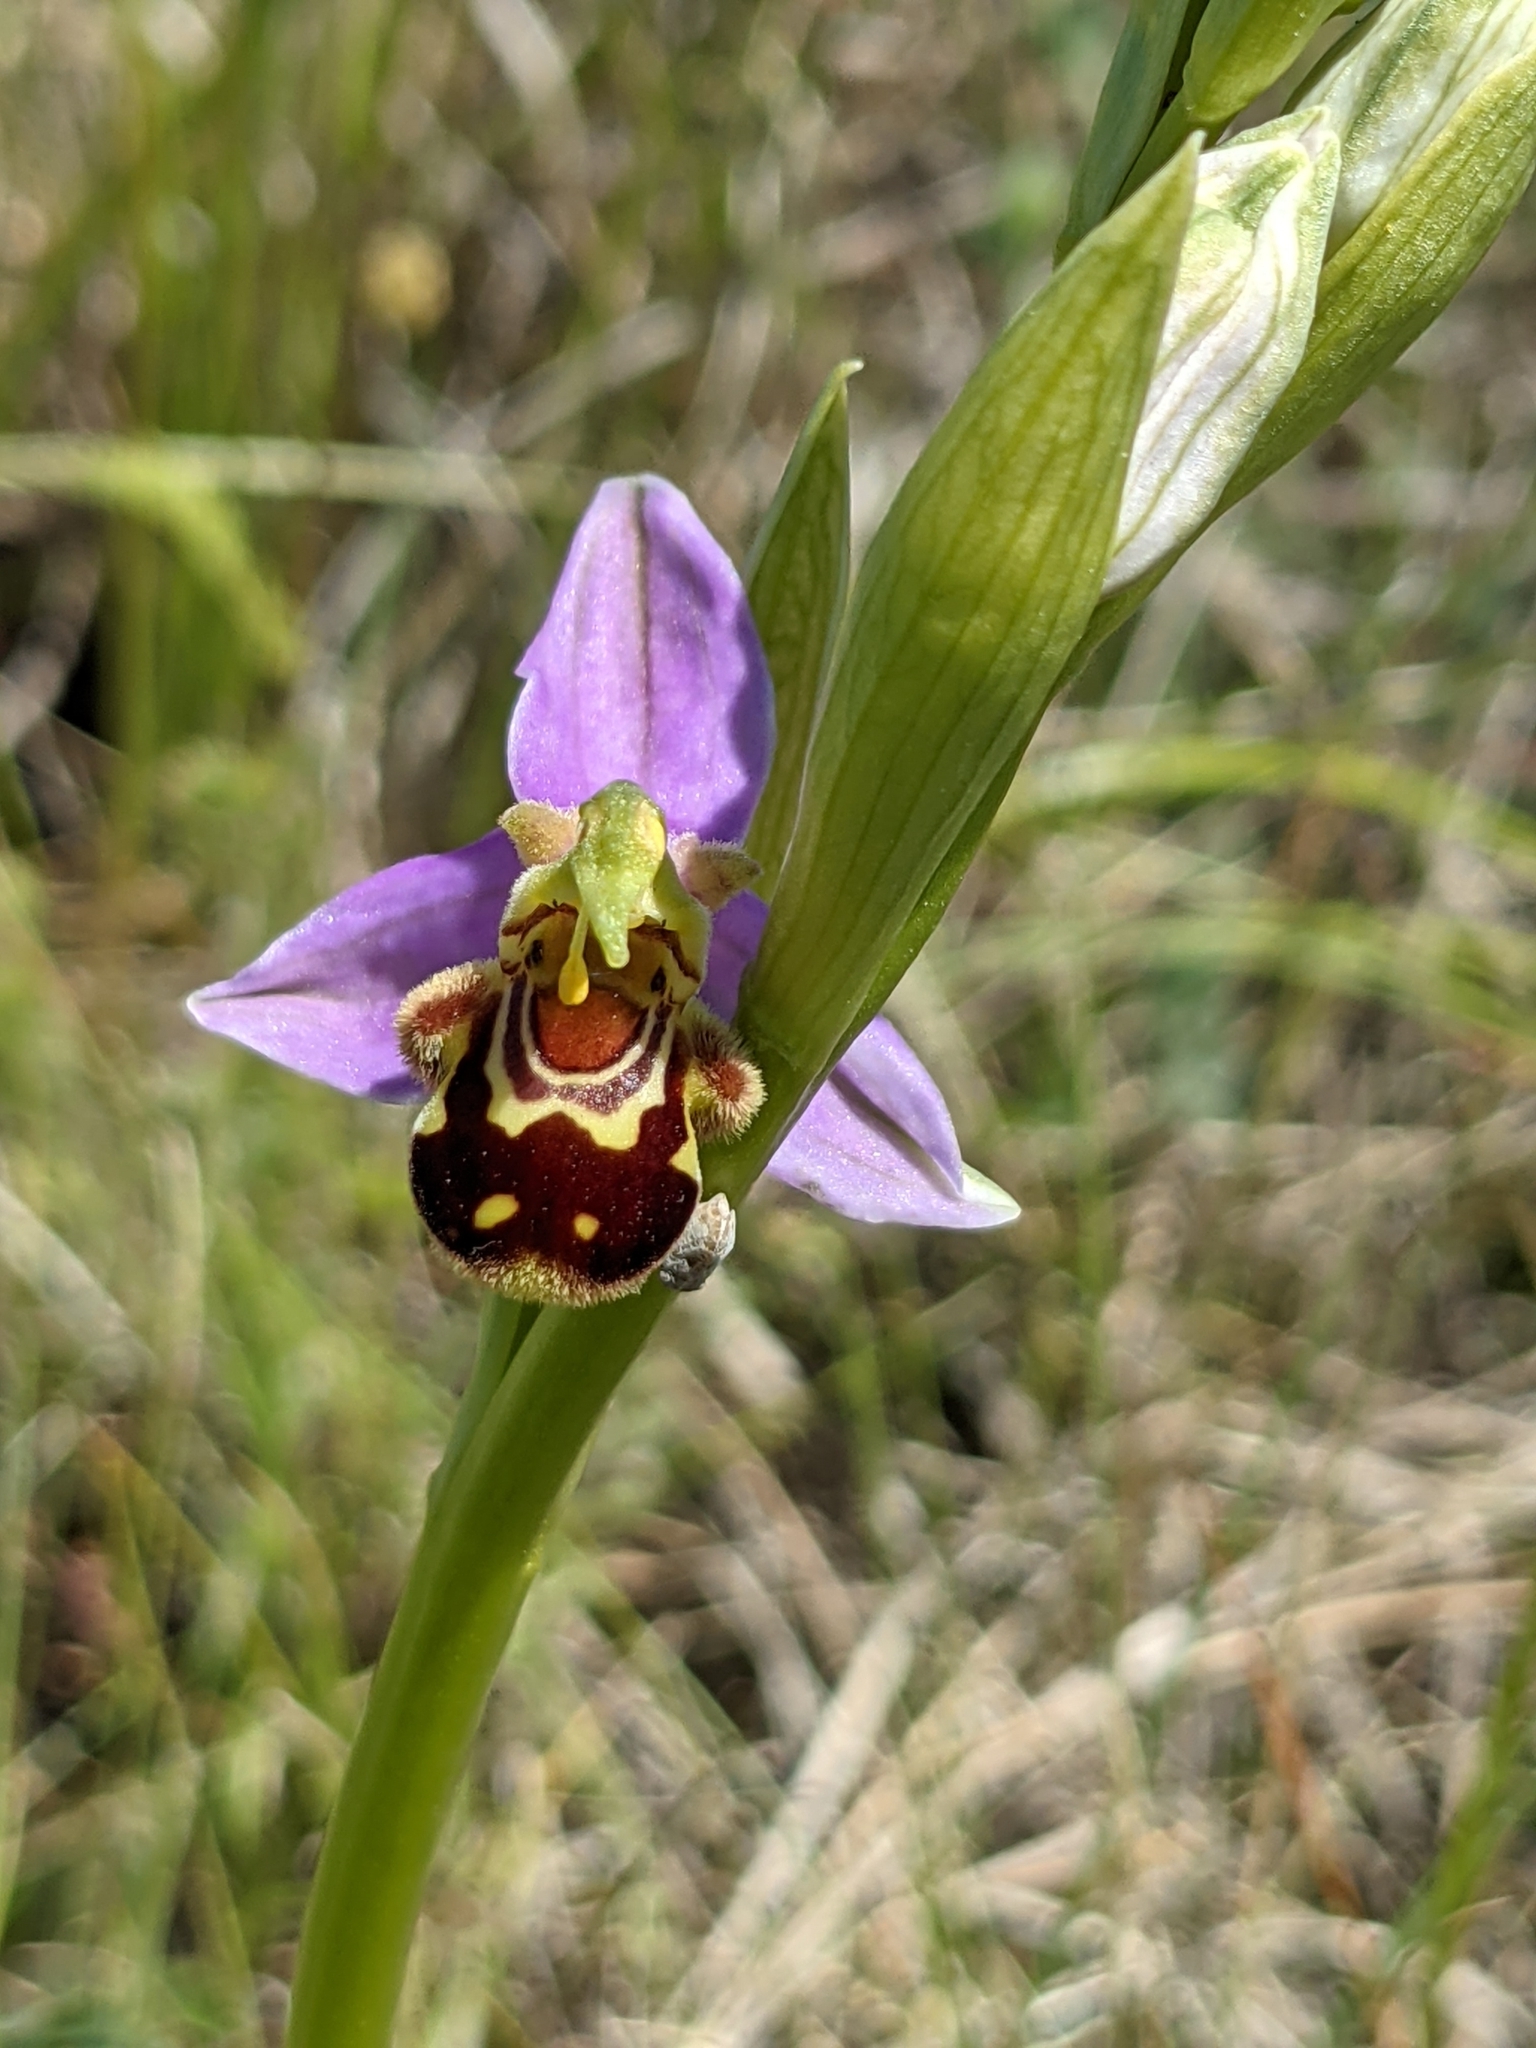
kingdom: Plantae
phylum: Tracheophyta
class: Liliopsida
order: Asparagales
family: Orchidaceae
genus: Ophrys
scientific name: Ophrys apifera
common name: Bee orchid
